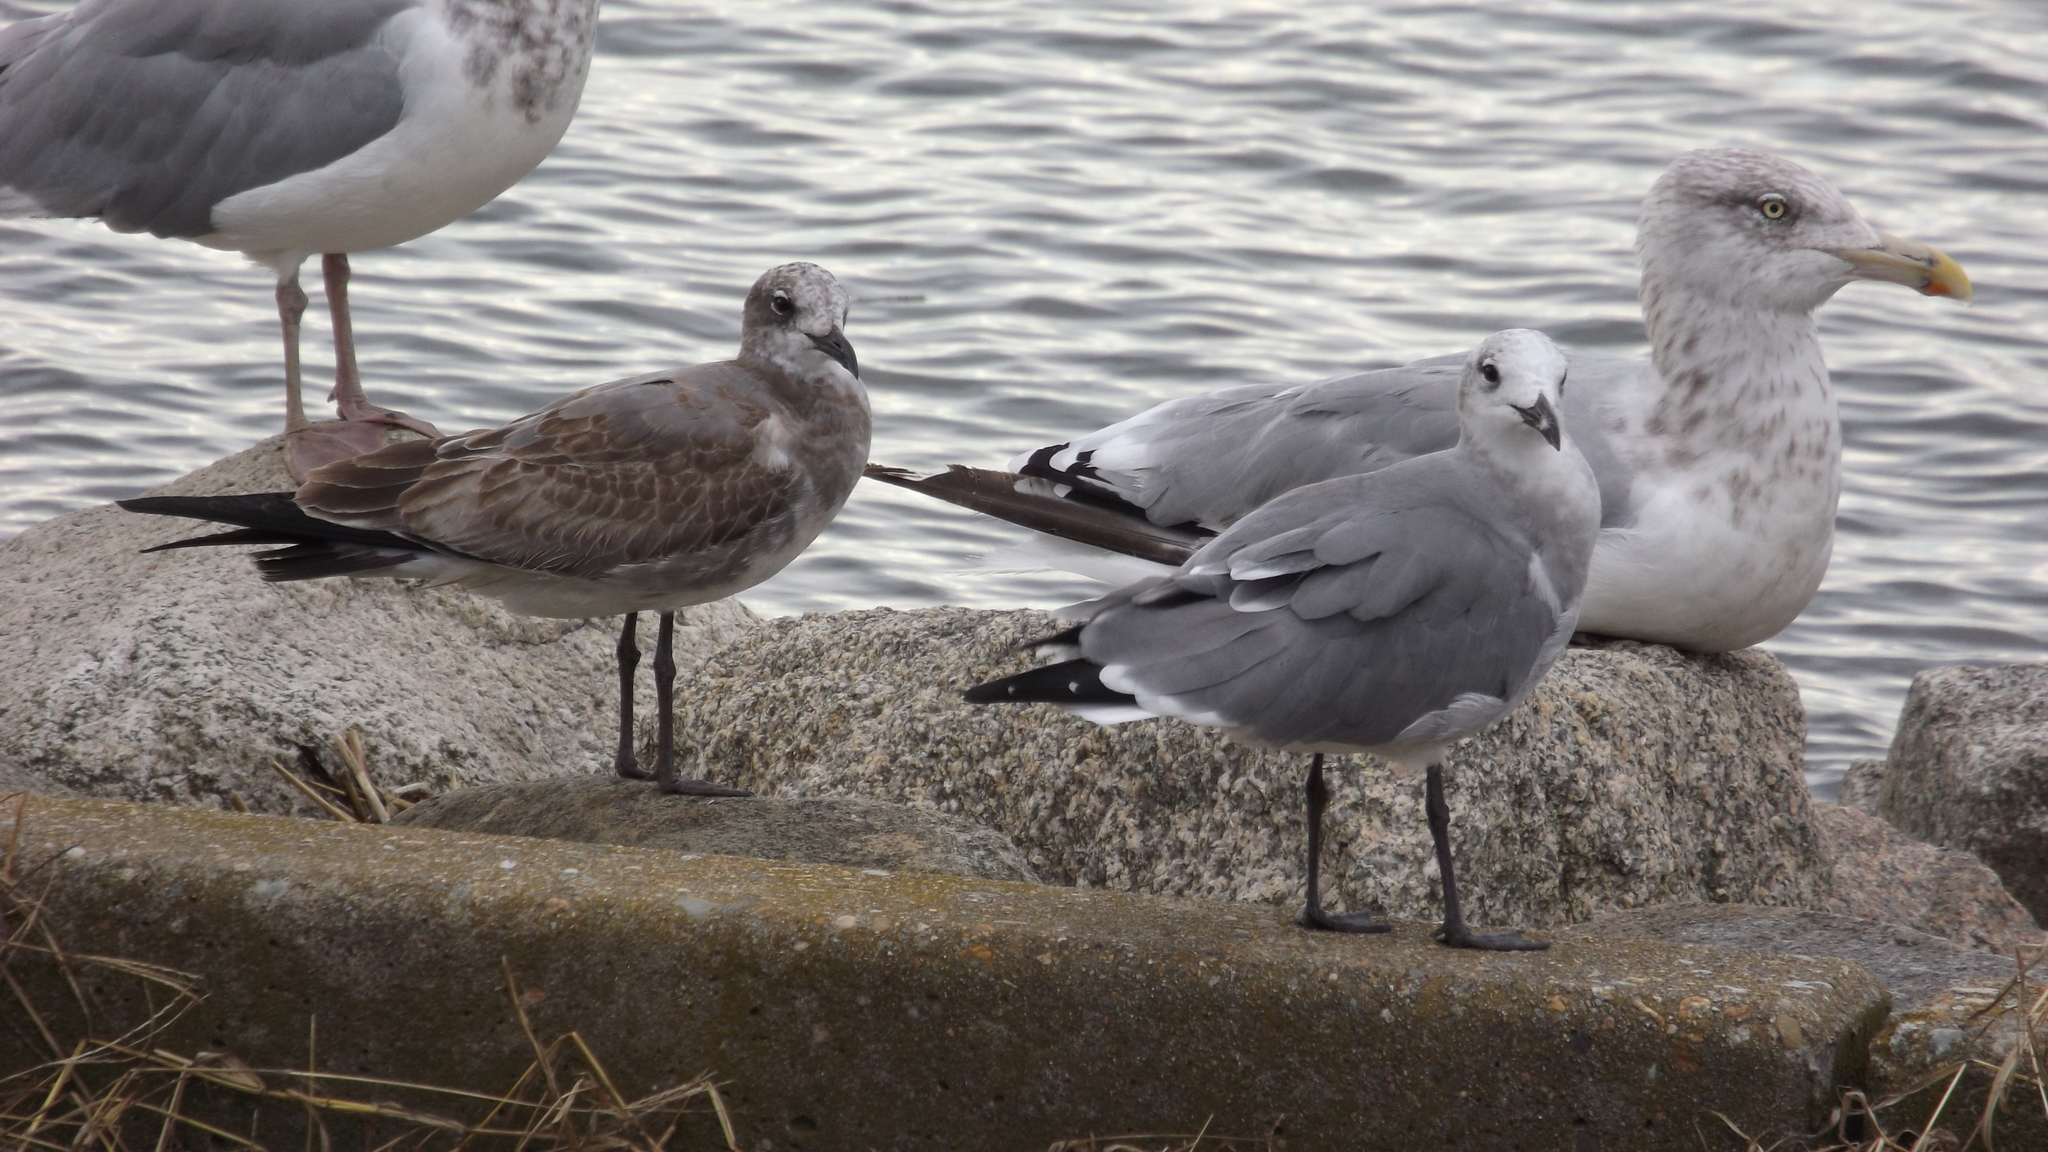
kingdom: Animalia
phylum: Chordata
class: Aves
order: Charadriiformes
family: Laridae
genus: Leucophaeus
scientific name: Leucophaeus atricilla
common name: Laughing gull
